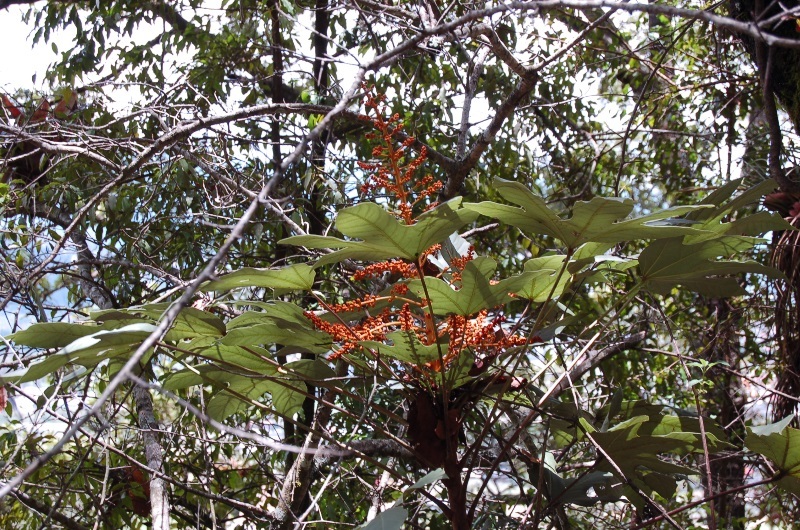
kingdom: Plantae
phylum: Tracheophyta
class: Magnoliopsida
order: Apiales
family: Araliaceae
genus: Oreopanax
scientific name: Oreopanax peltatus
